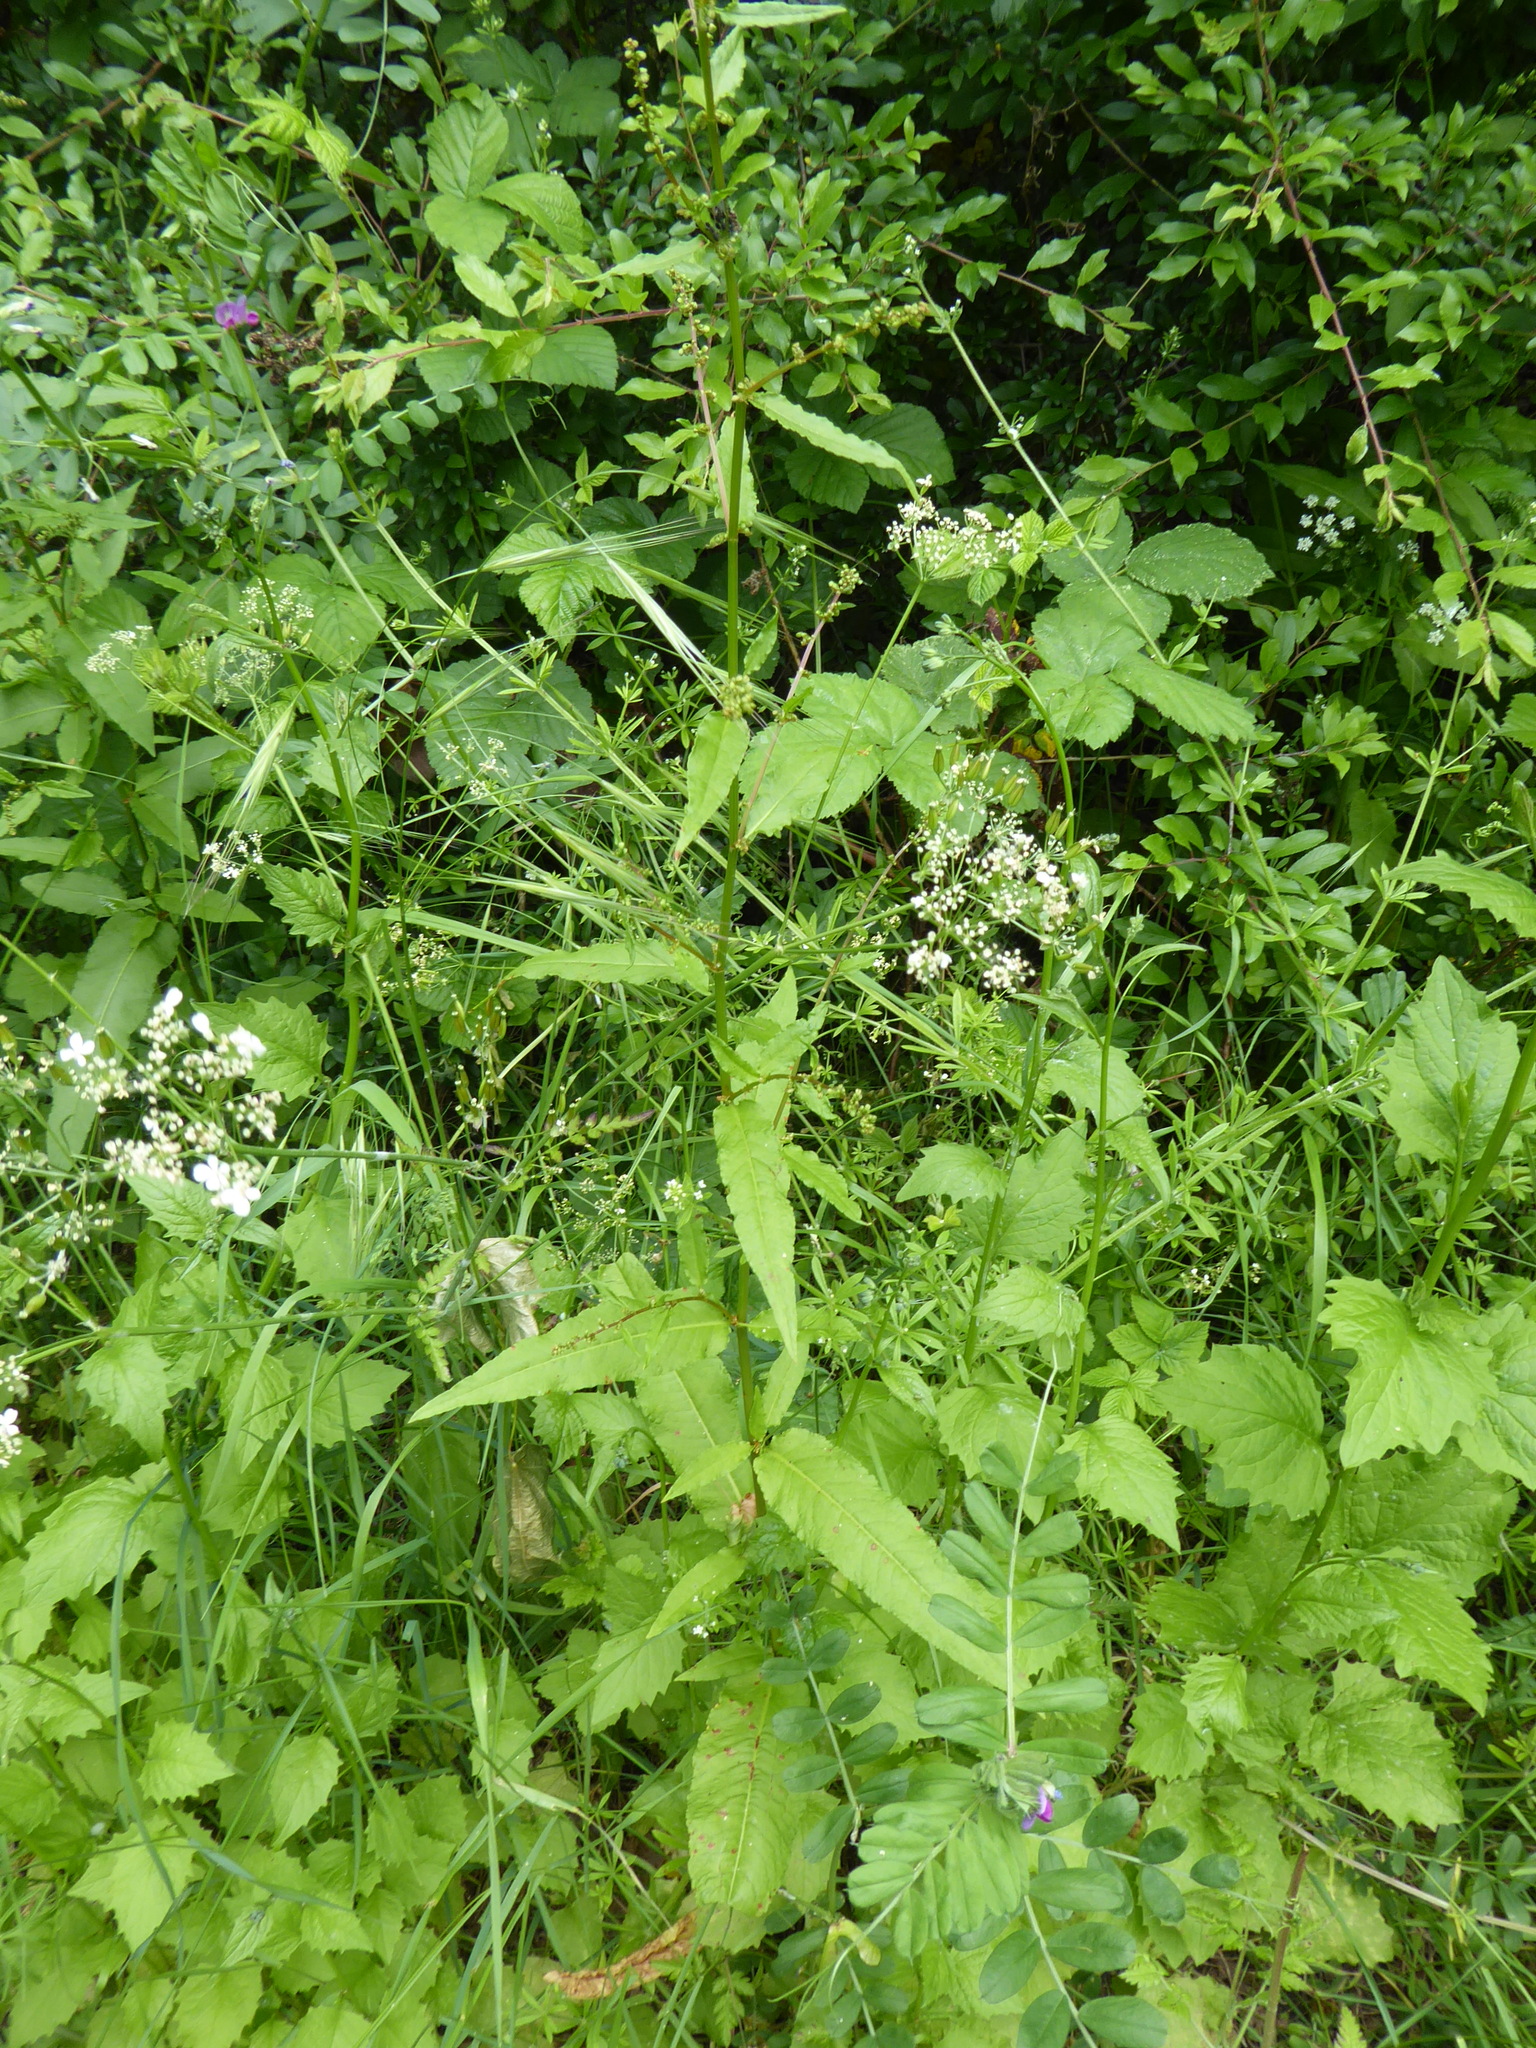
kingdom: Plantae
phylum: Tracheophyta
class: Magnoliopsida
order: Caryophyllales
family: Polygonaceae
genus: Rumex
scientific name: Rumex sanguineus
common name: Wood dock
